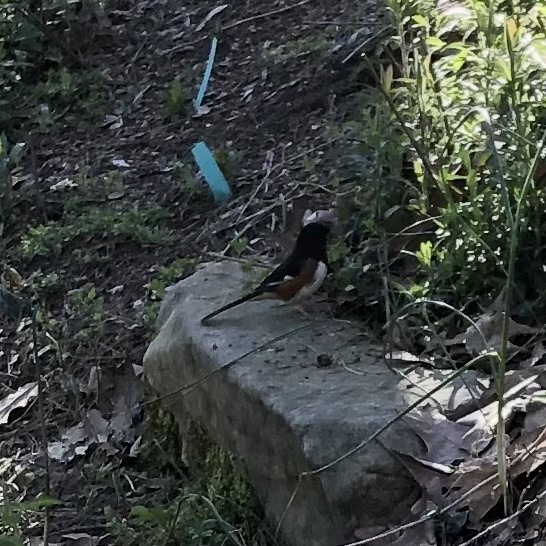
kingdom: Animalia
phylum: Chordata
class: Aves
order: Passeriformes
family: Passerellidae
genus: Pipilo
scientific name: Pipilo erythrophthalmus
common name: Eastern towhee
